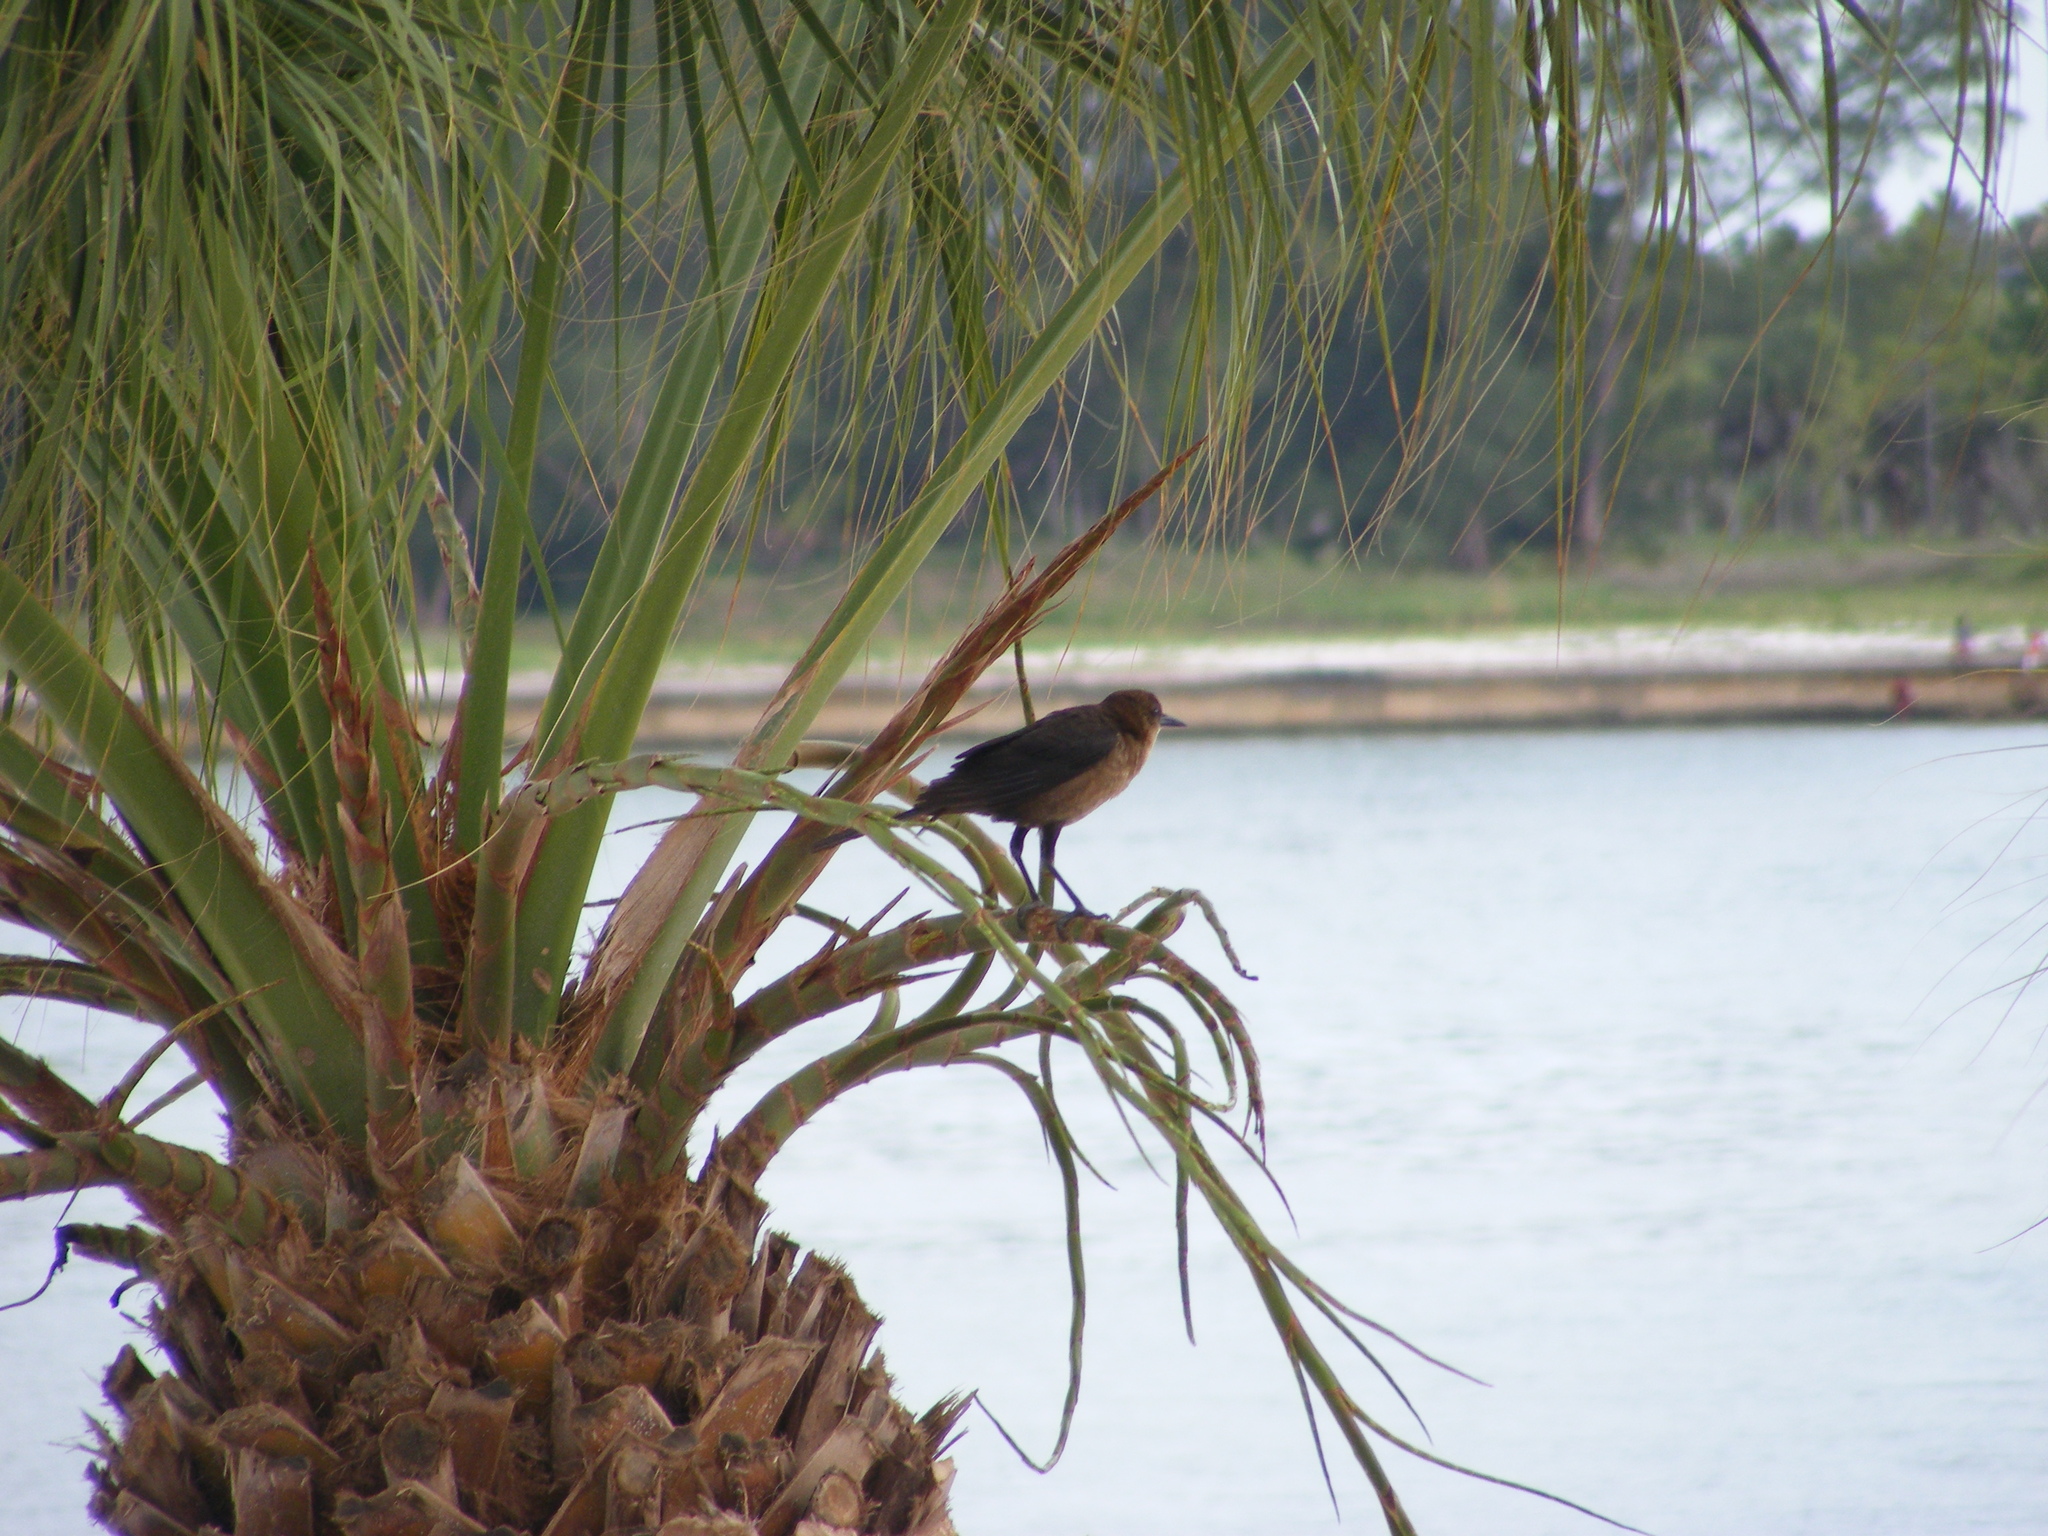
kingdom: Animalia
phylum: Chordata
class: Aves
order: Passeriformes
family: Icteridae
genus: Quiscalus
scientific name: Quiscalus major
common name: Boat-tailed grackle
